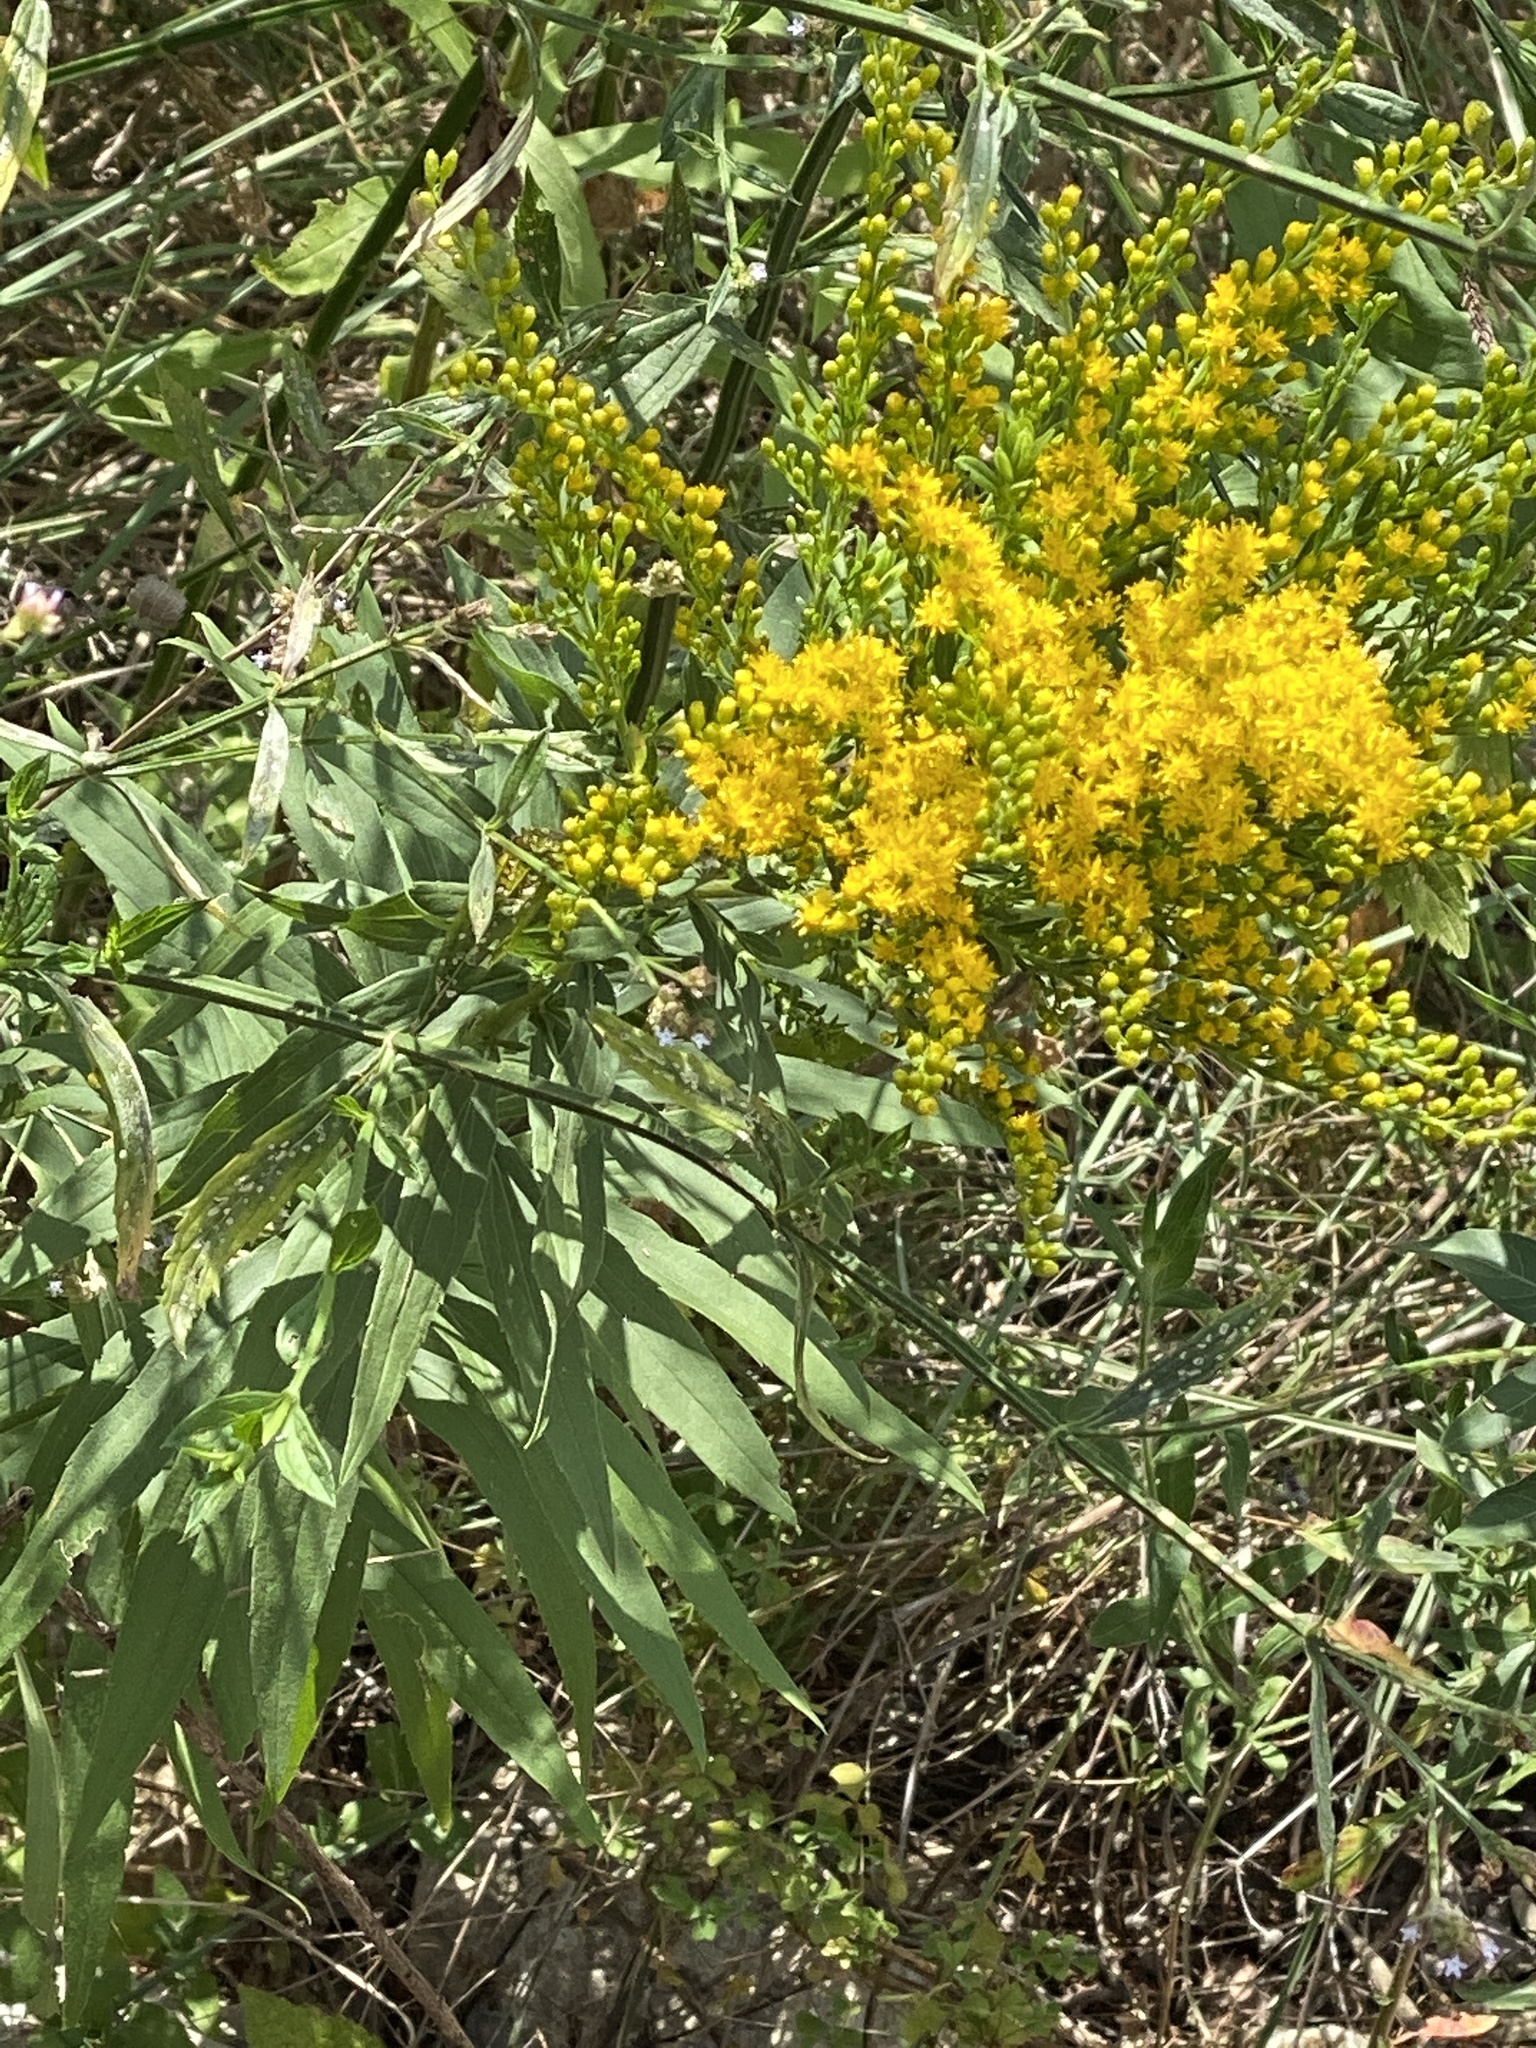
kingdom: Plantae
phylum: Tracheophyta
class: Magnoliopsida
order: Asterales
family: Asteraceae
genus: Solidago
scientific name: Solidago altissima
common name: Late goldenrod
